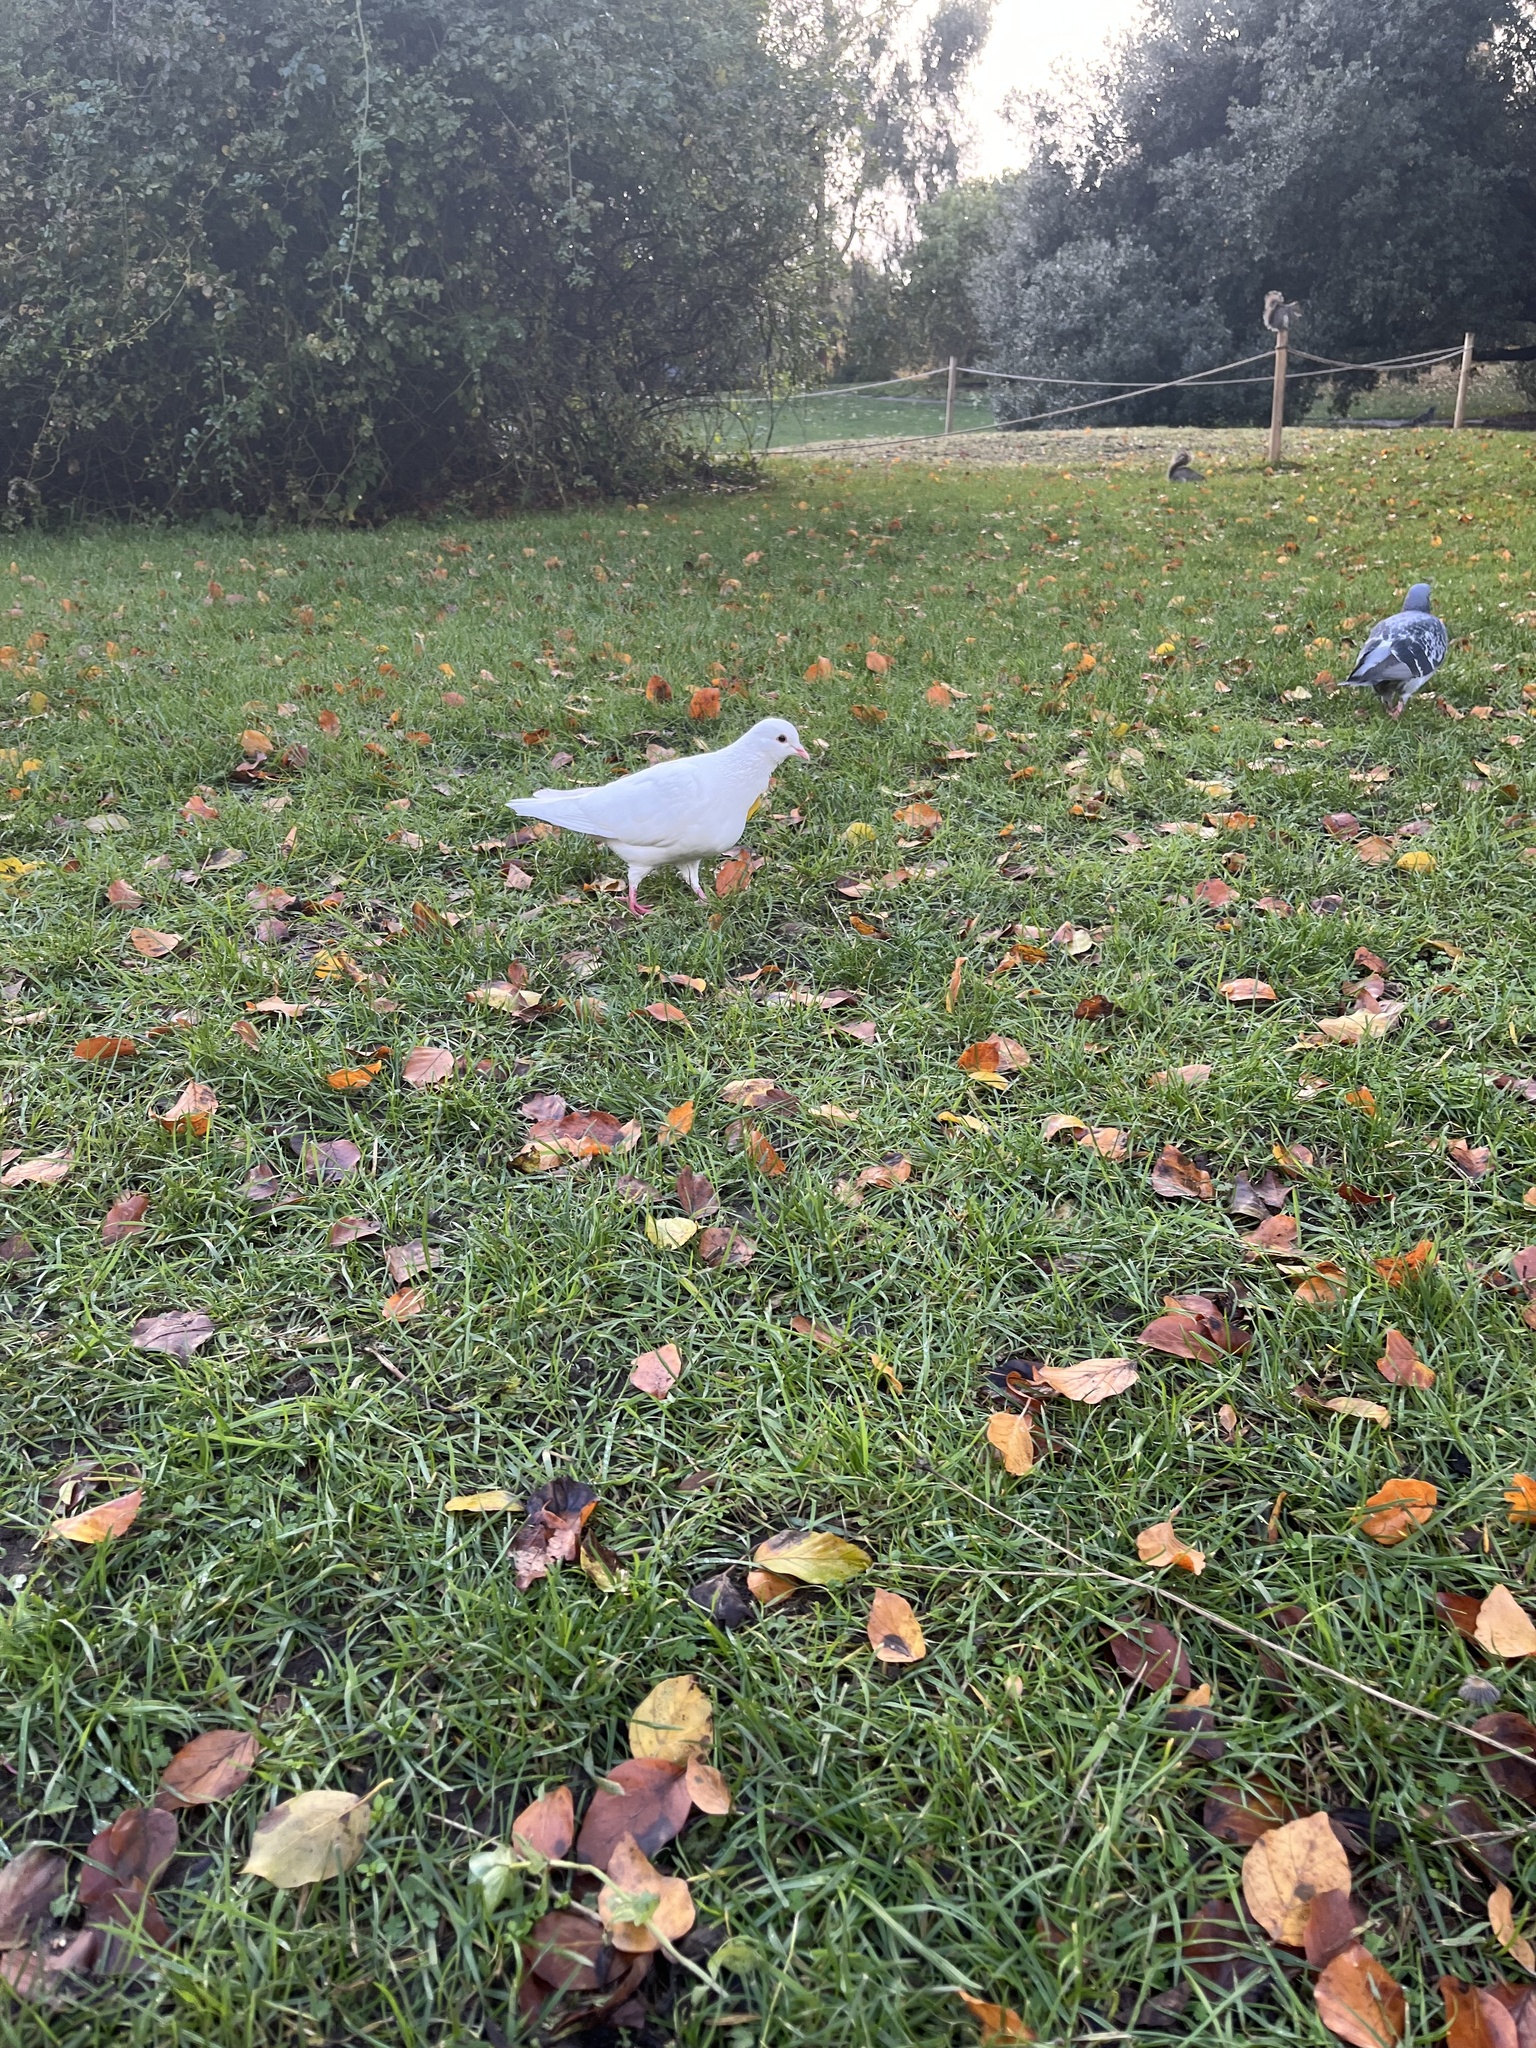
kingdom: Animalia
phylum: Chordata
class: Aves
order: Columbiformes
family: Columbidae
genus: Columba
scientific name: Columba livia
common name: Rock pigeon
